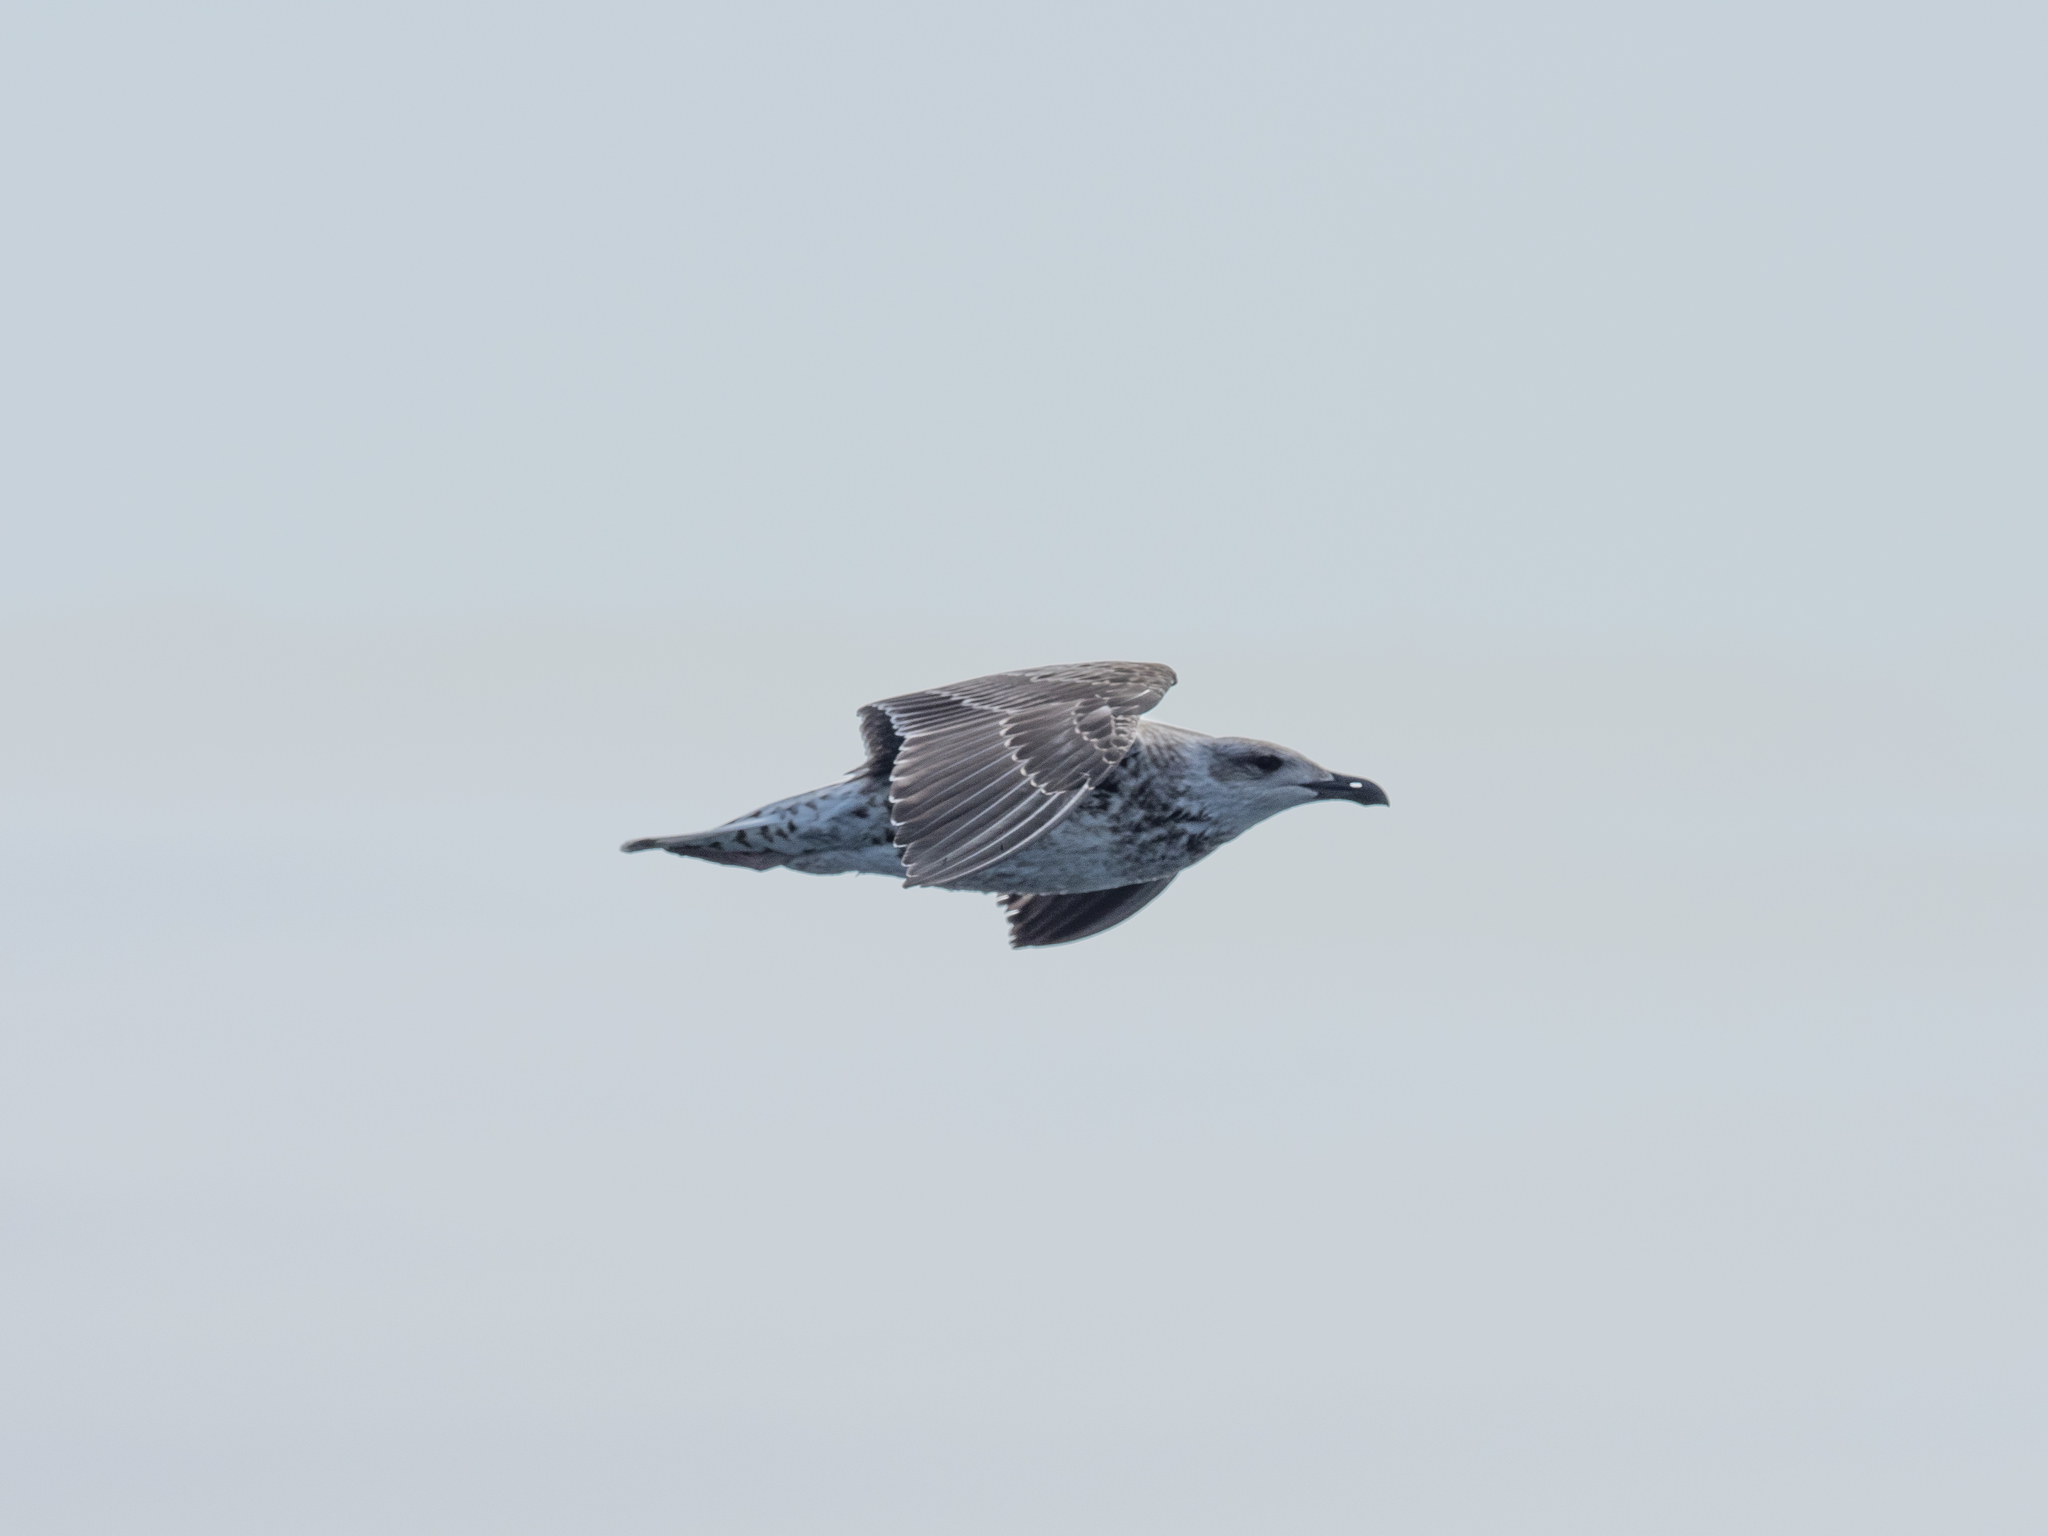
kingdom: Animalia
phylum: Chordata
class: Aves
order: Charadriiformes
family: Laridae
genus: Larus
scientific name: Larus marinus
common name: Great black-backed gull
